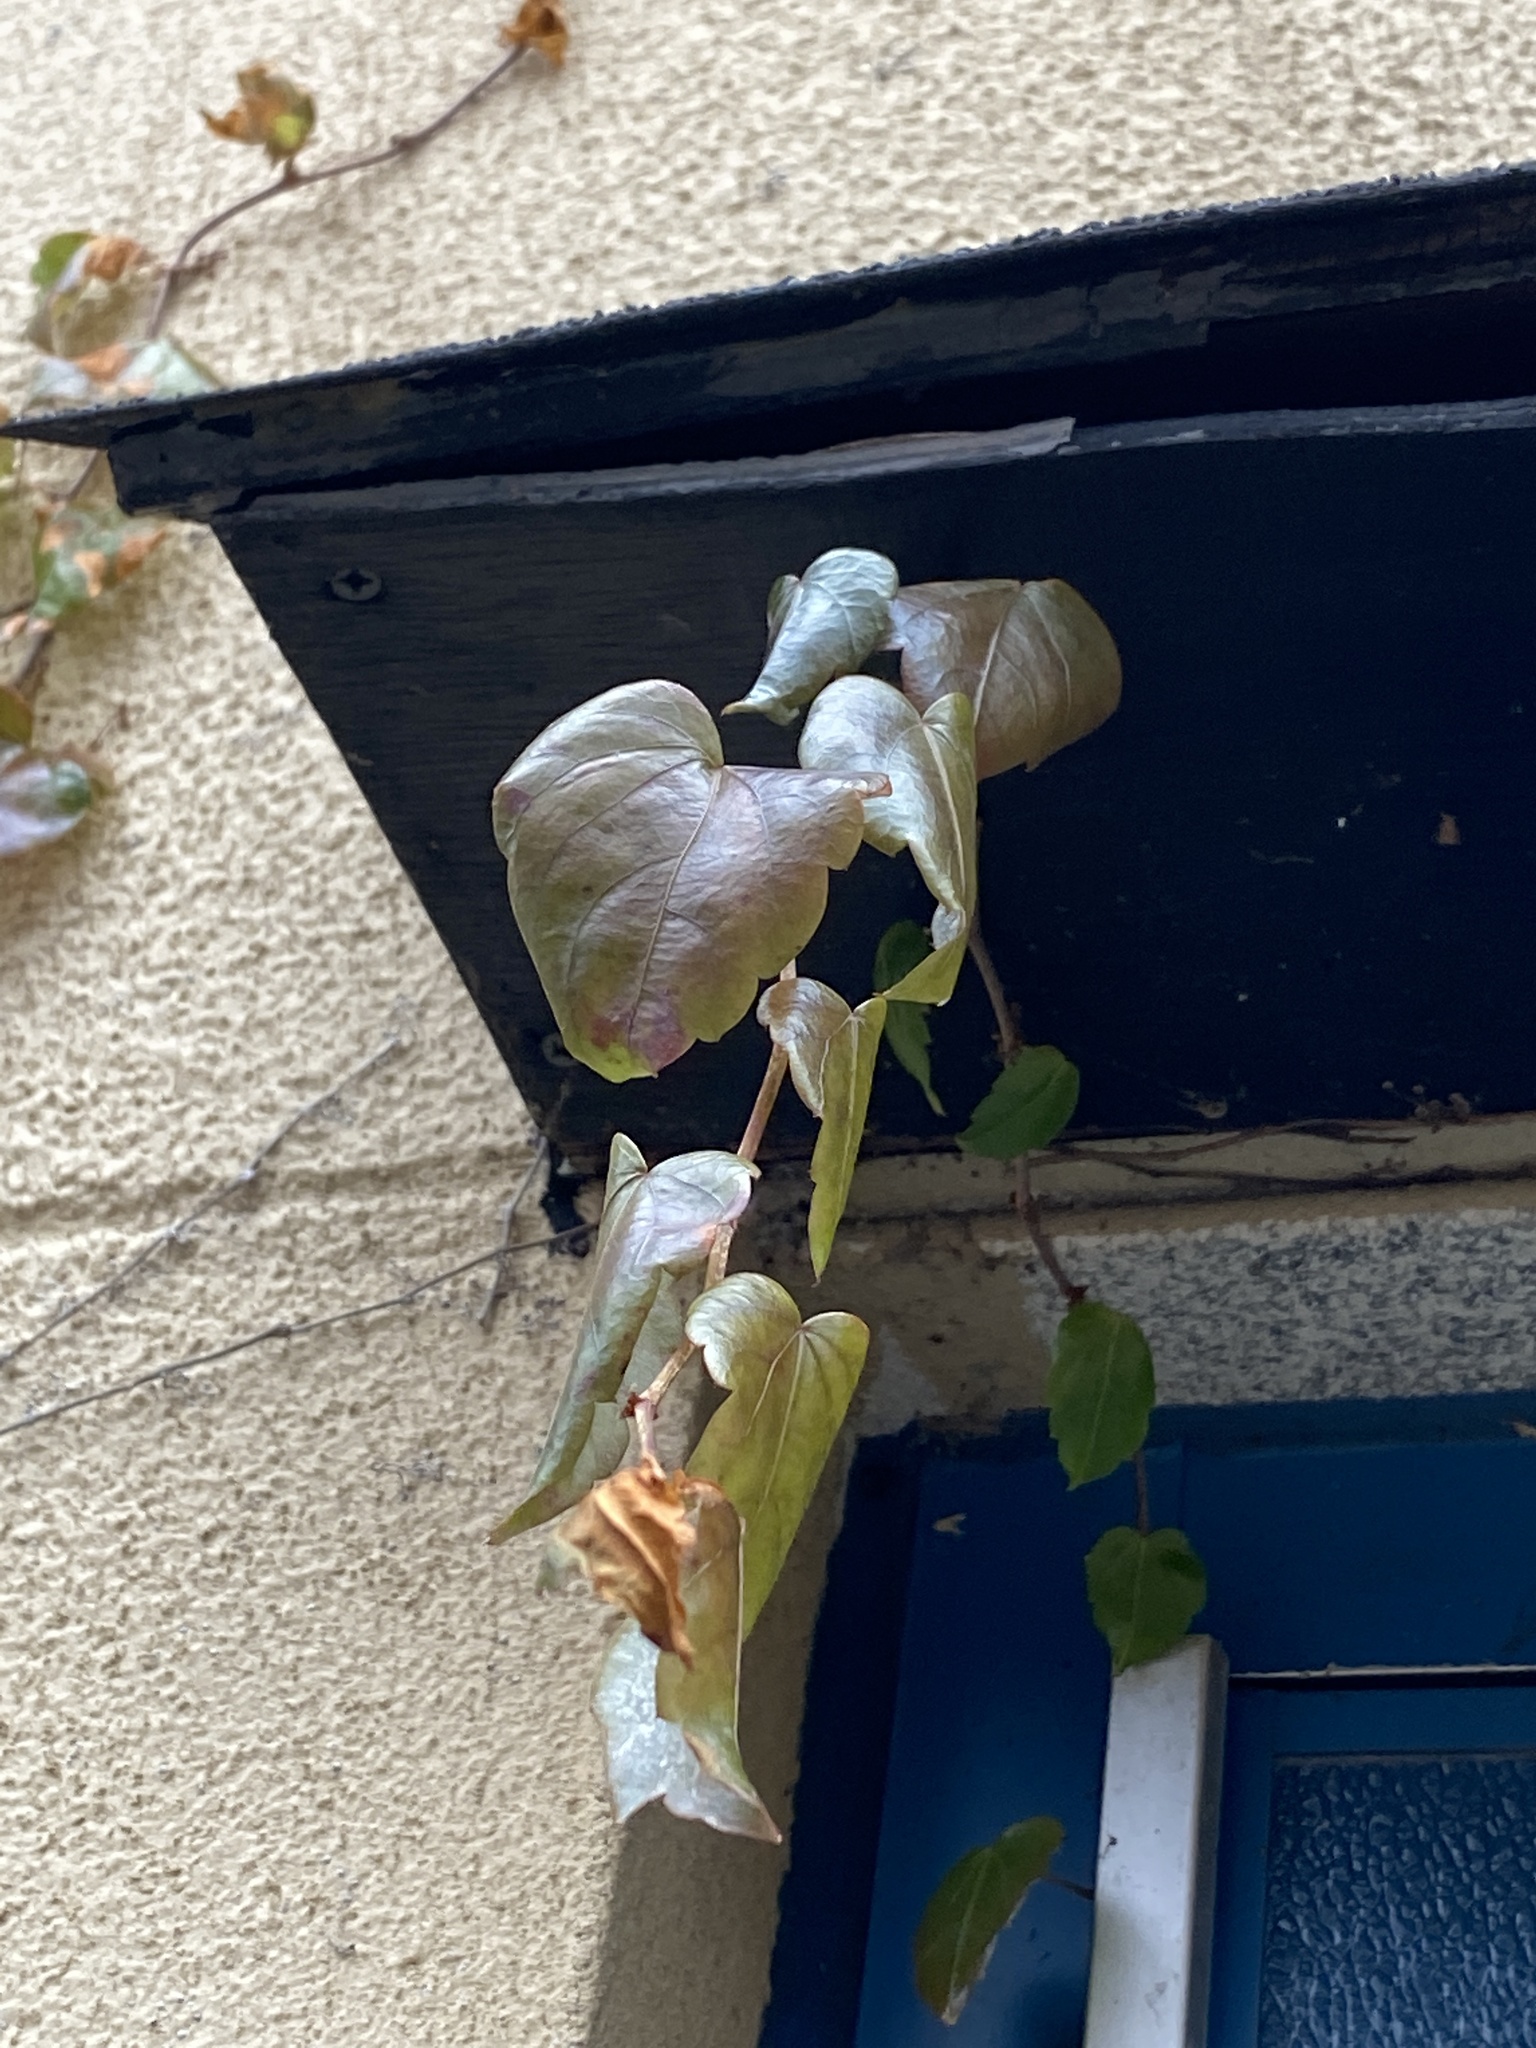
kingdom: Plantae
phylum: Tracheophyta
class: Magnoliopsida
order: Vitales
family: Vitaceae
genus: Parthenocissus
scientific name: Parthenocissus tricuspidata
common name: Boston ivy
